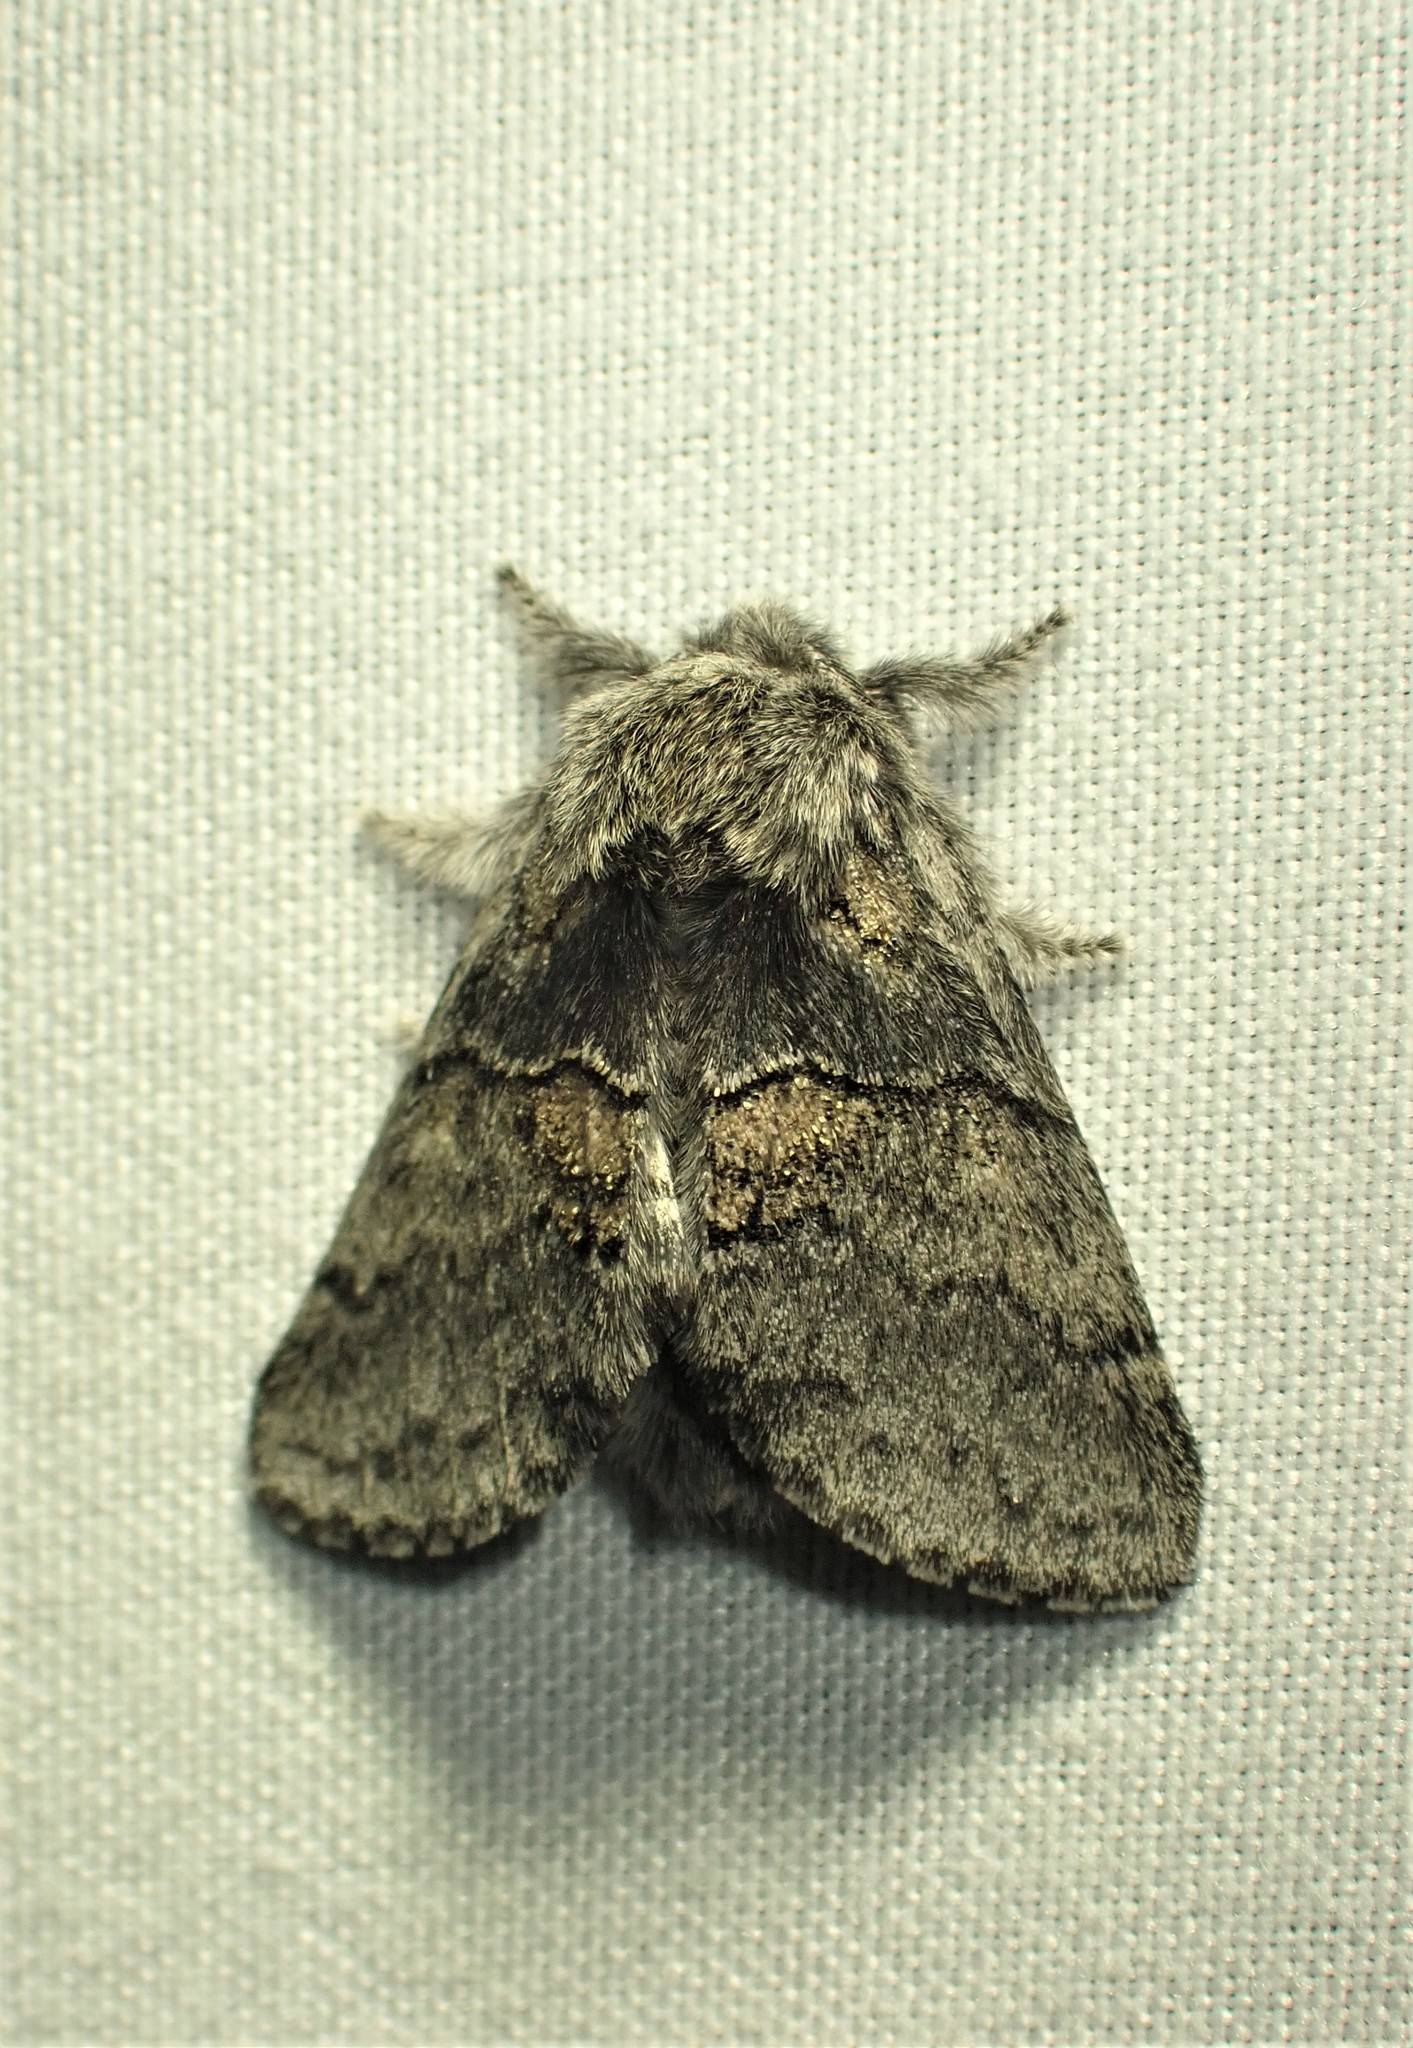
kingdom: Animalia
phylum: Arthropoda
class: Insecta
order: Lepidoptera
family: Notodontidae
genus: Gluphisia
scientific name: Gluphisia septentrionis
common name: Common gluphisia
